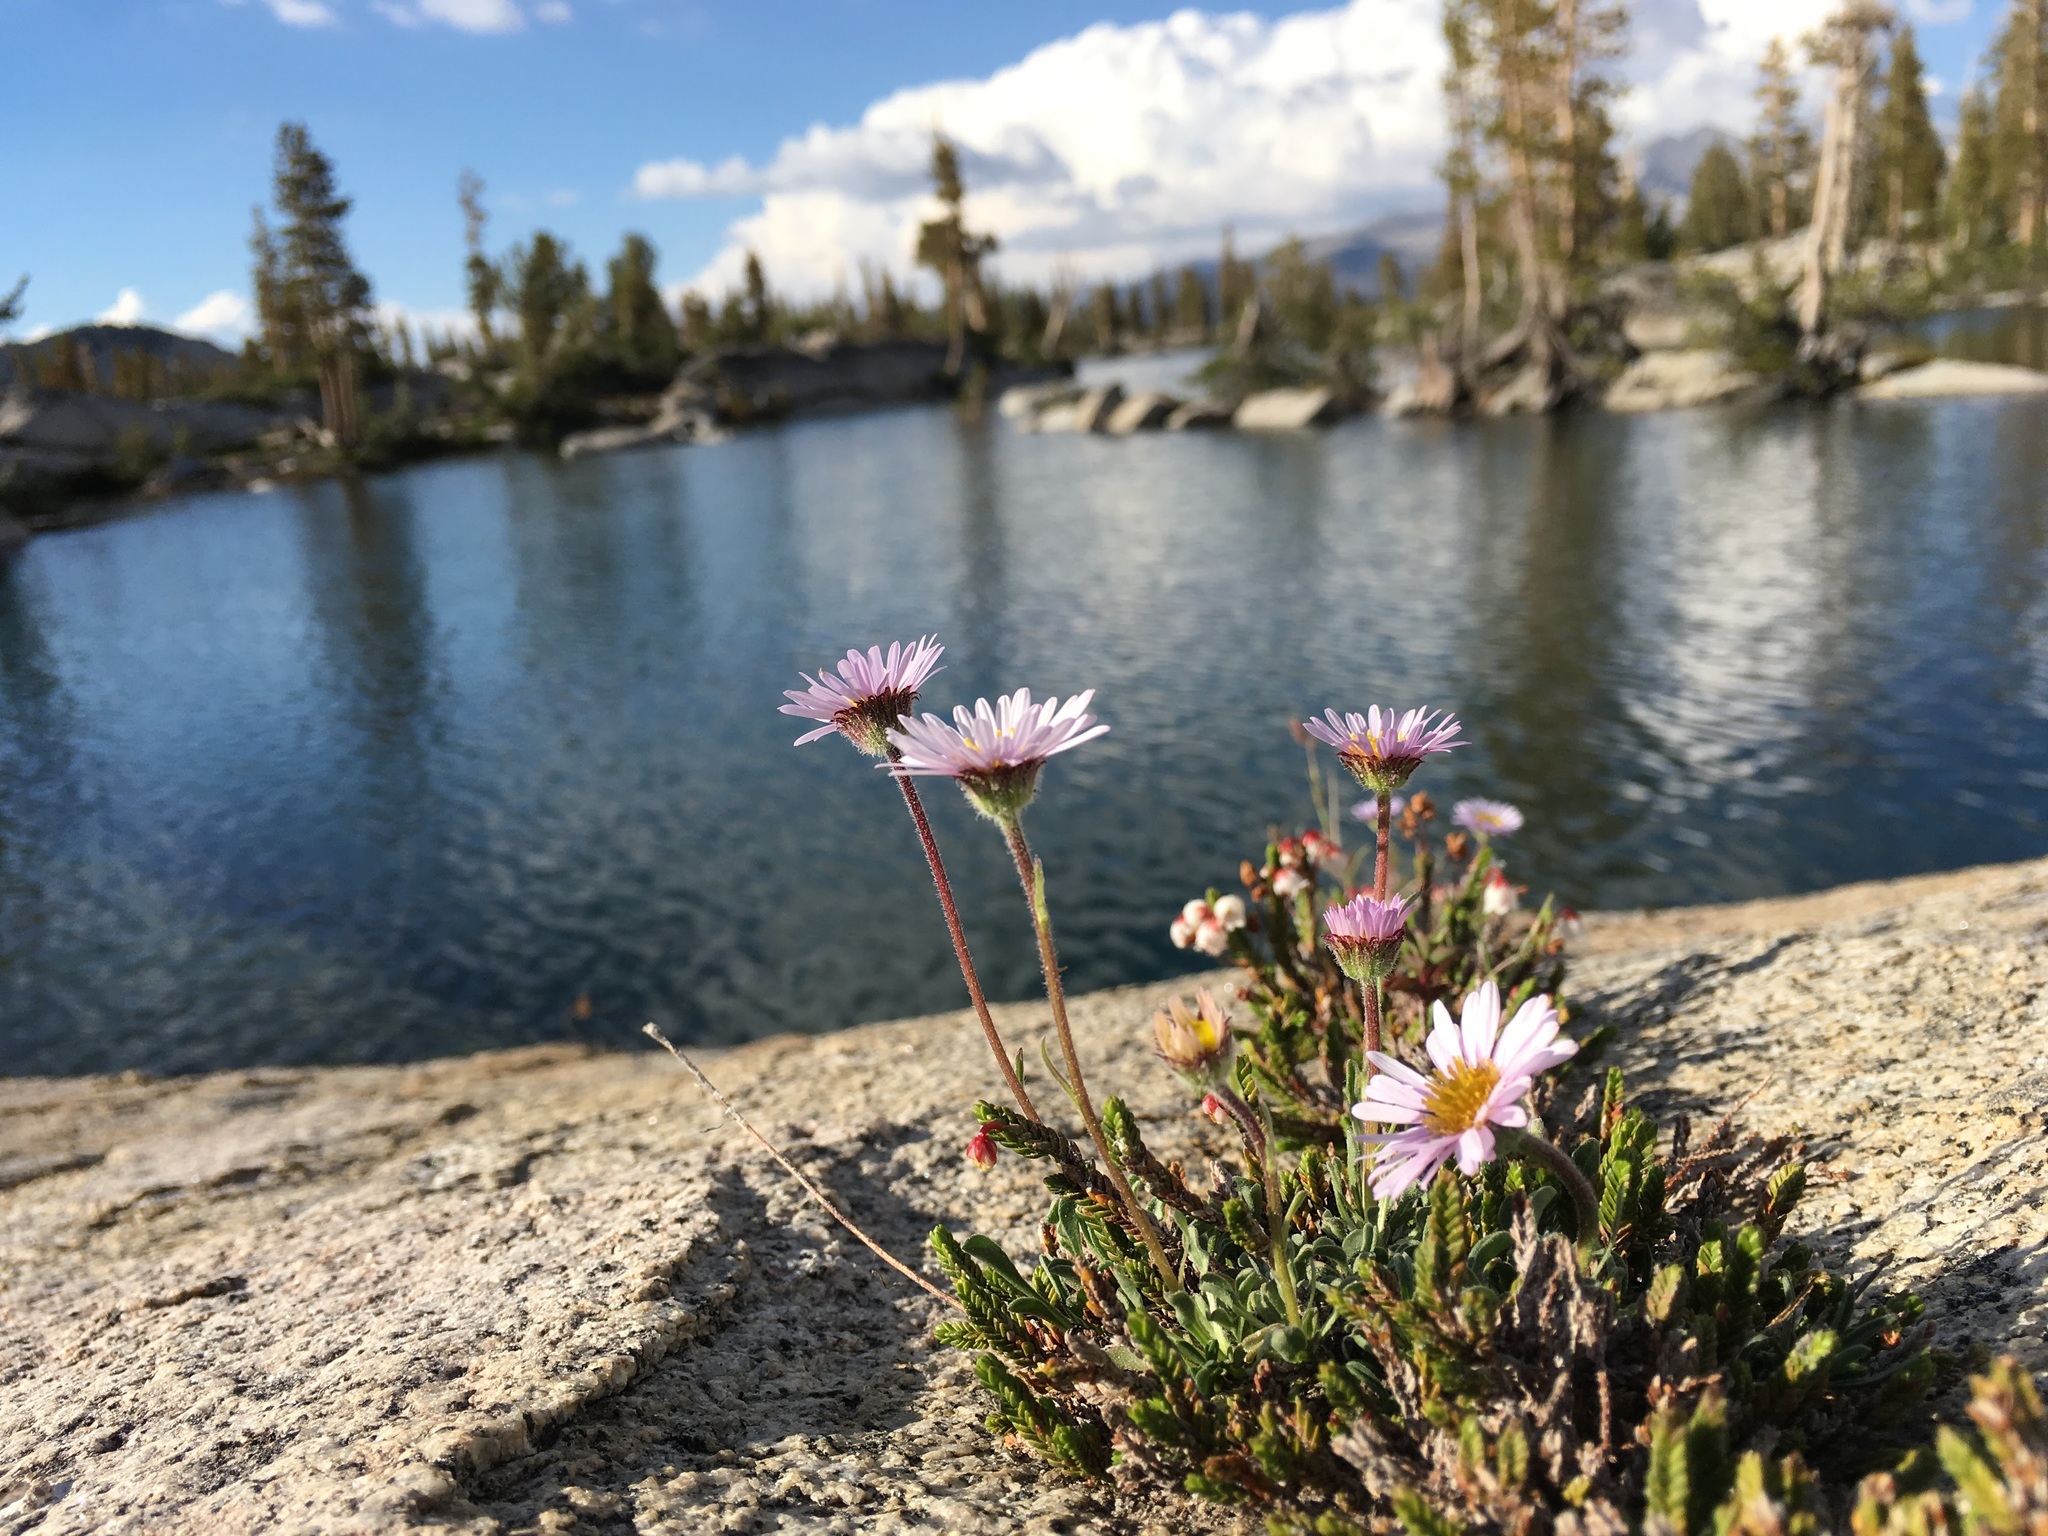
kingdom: Plantae
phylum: Tracheophyta
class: Magnoliopsida
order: Asterales
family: Asteraceae
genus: Erigeron
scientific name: Erigeron glacialis
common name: Subalpine fleabane
